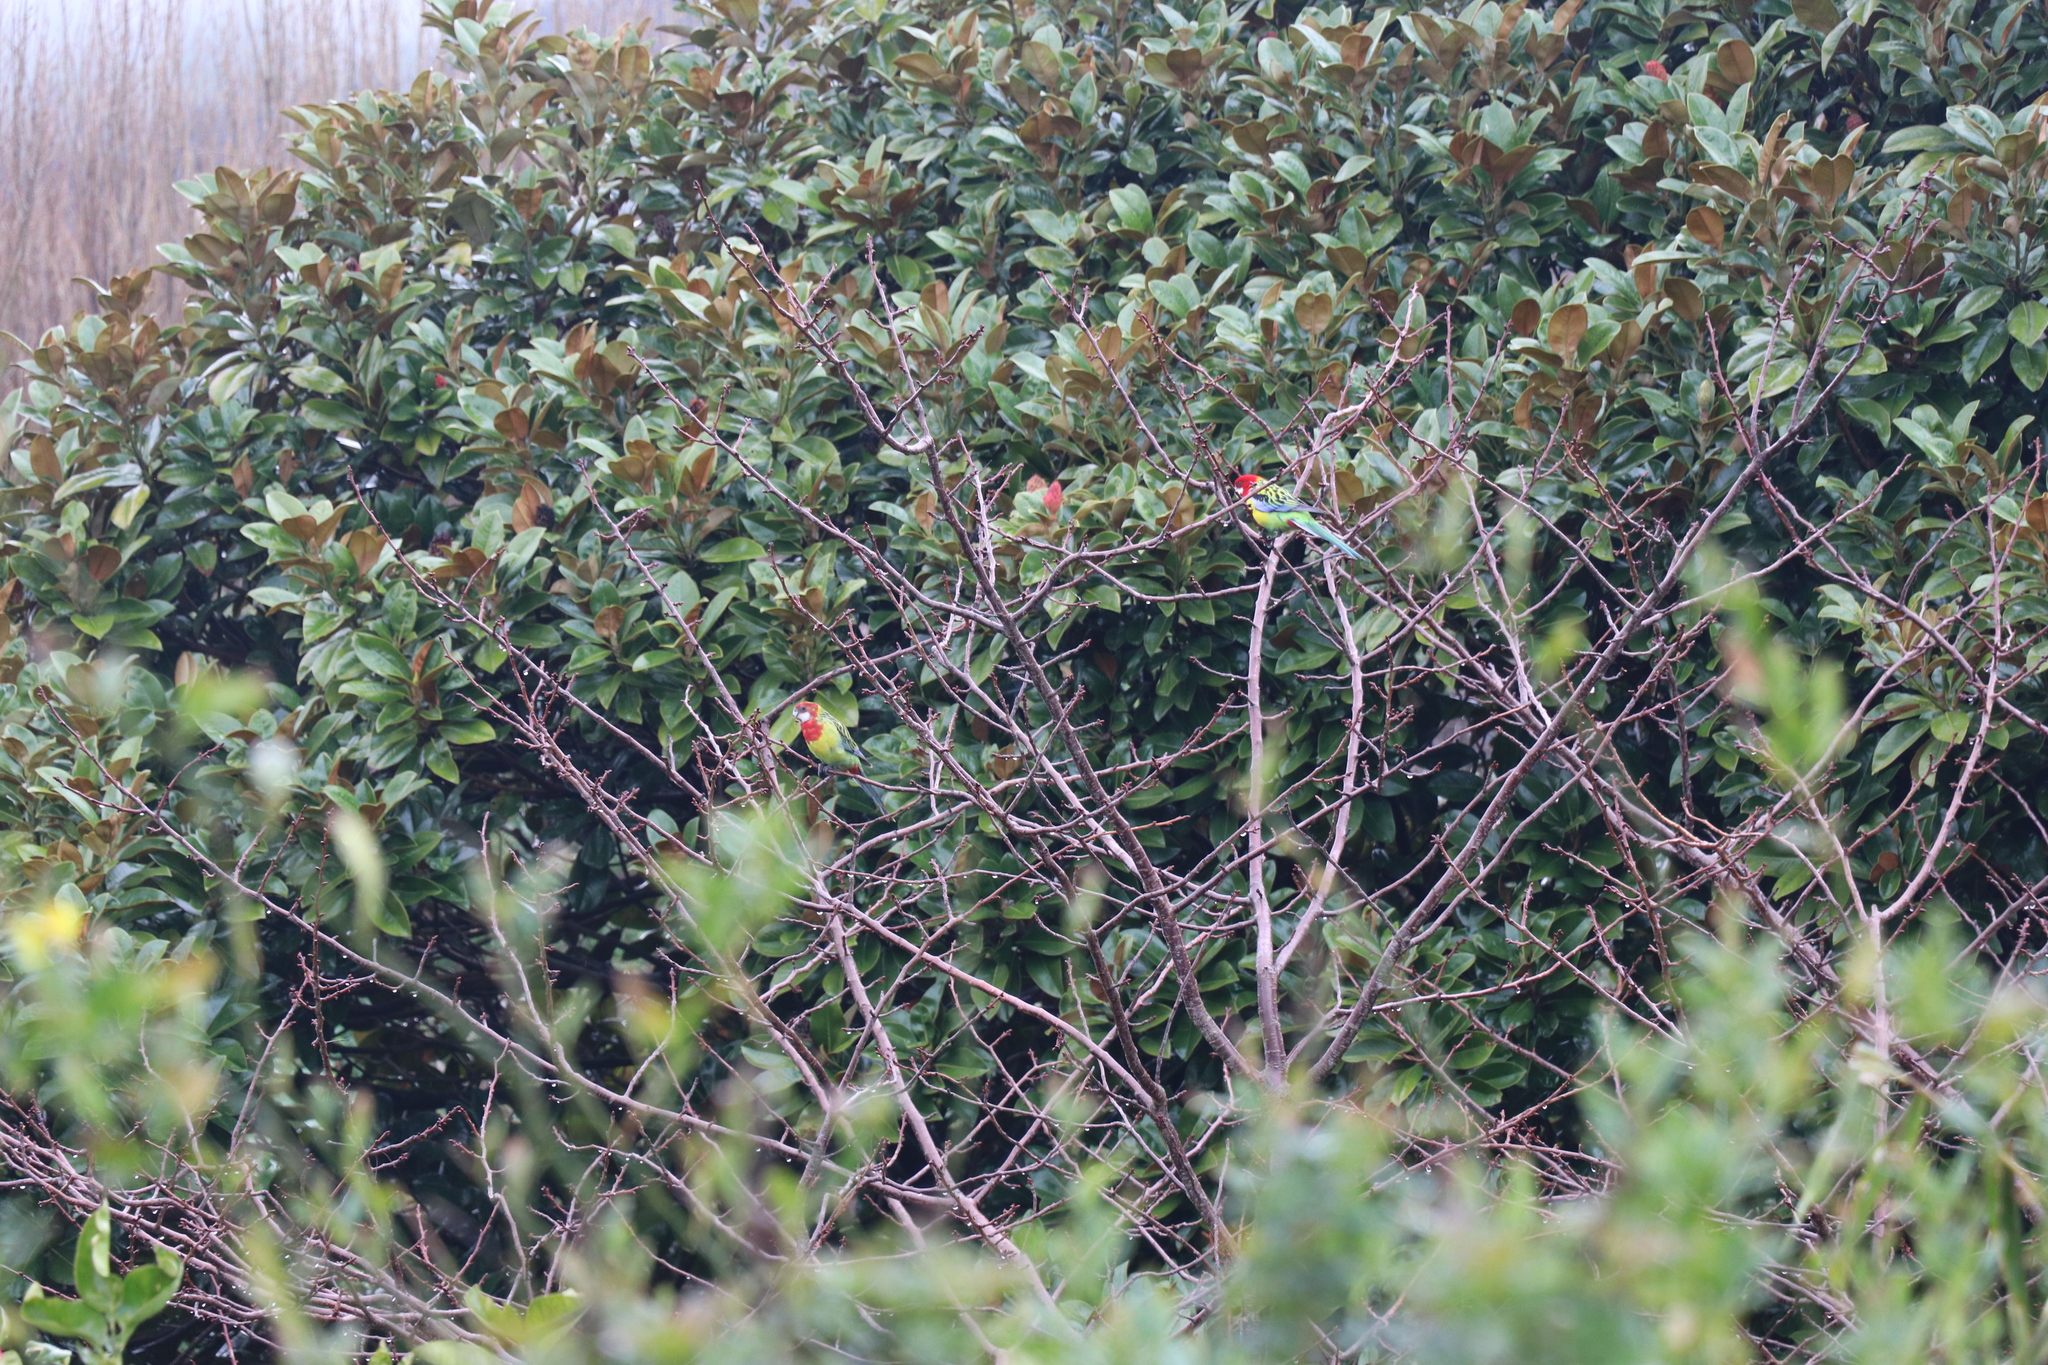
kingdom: Animalia
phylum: Chordata
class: Aves
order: Psittaciformes
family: Psittacidae
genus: Platycercus
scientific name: Platycercus eximius
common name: Eastern rosella
